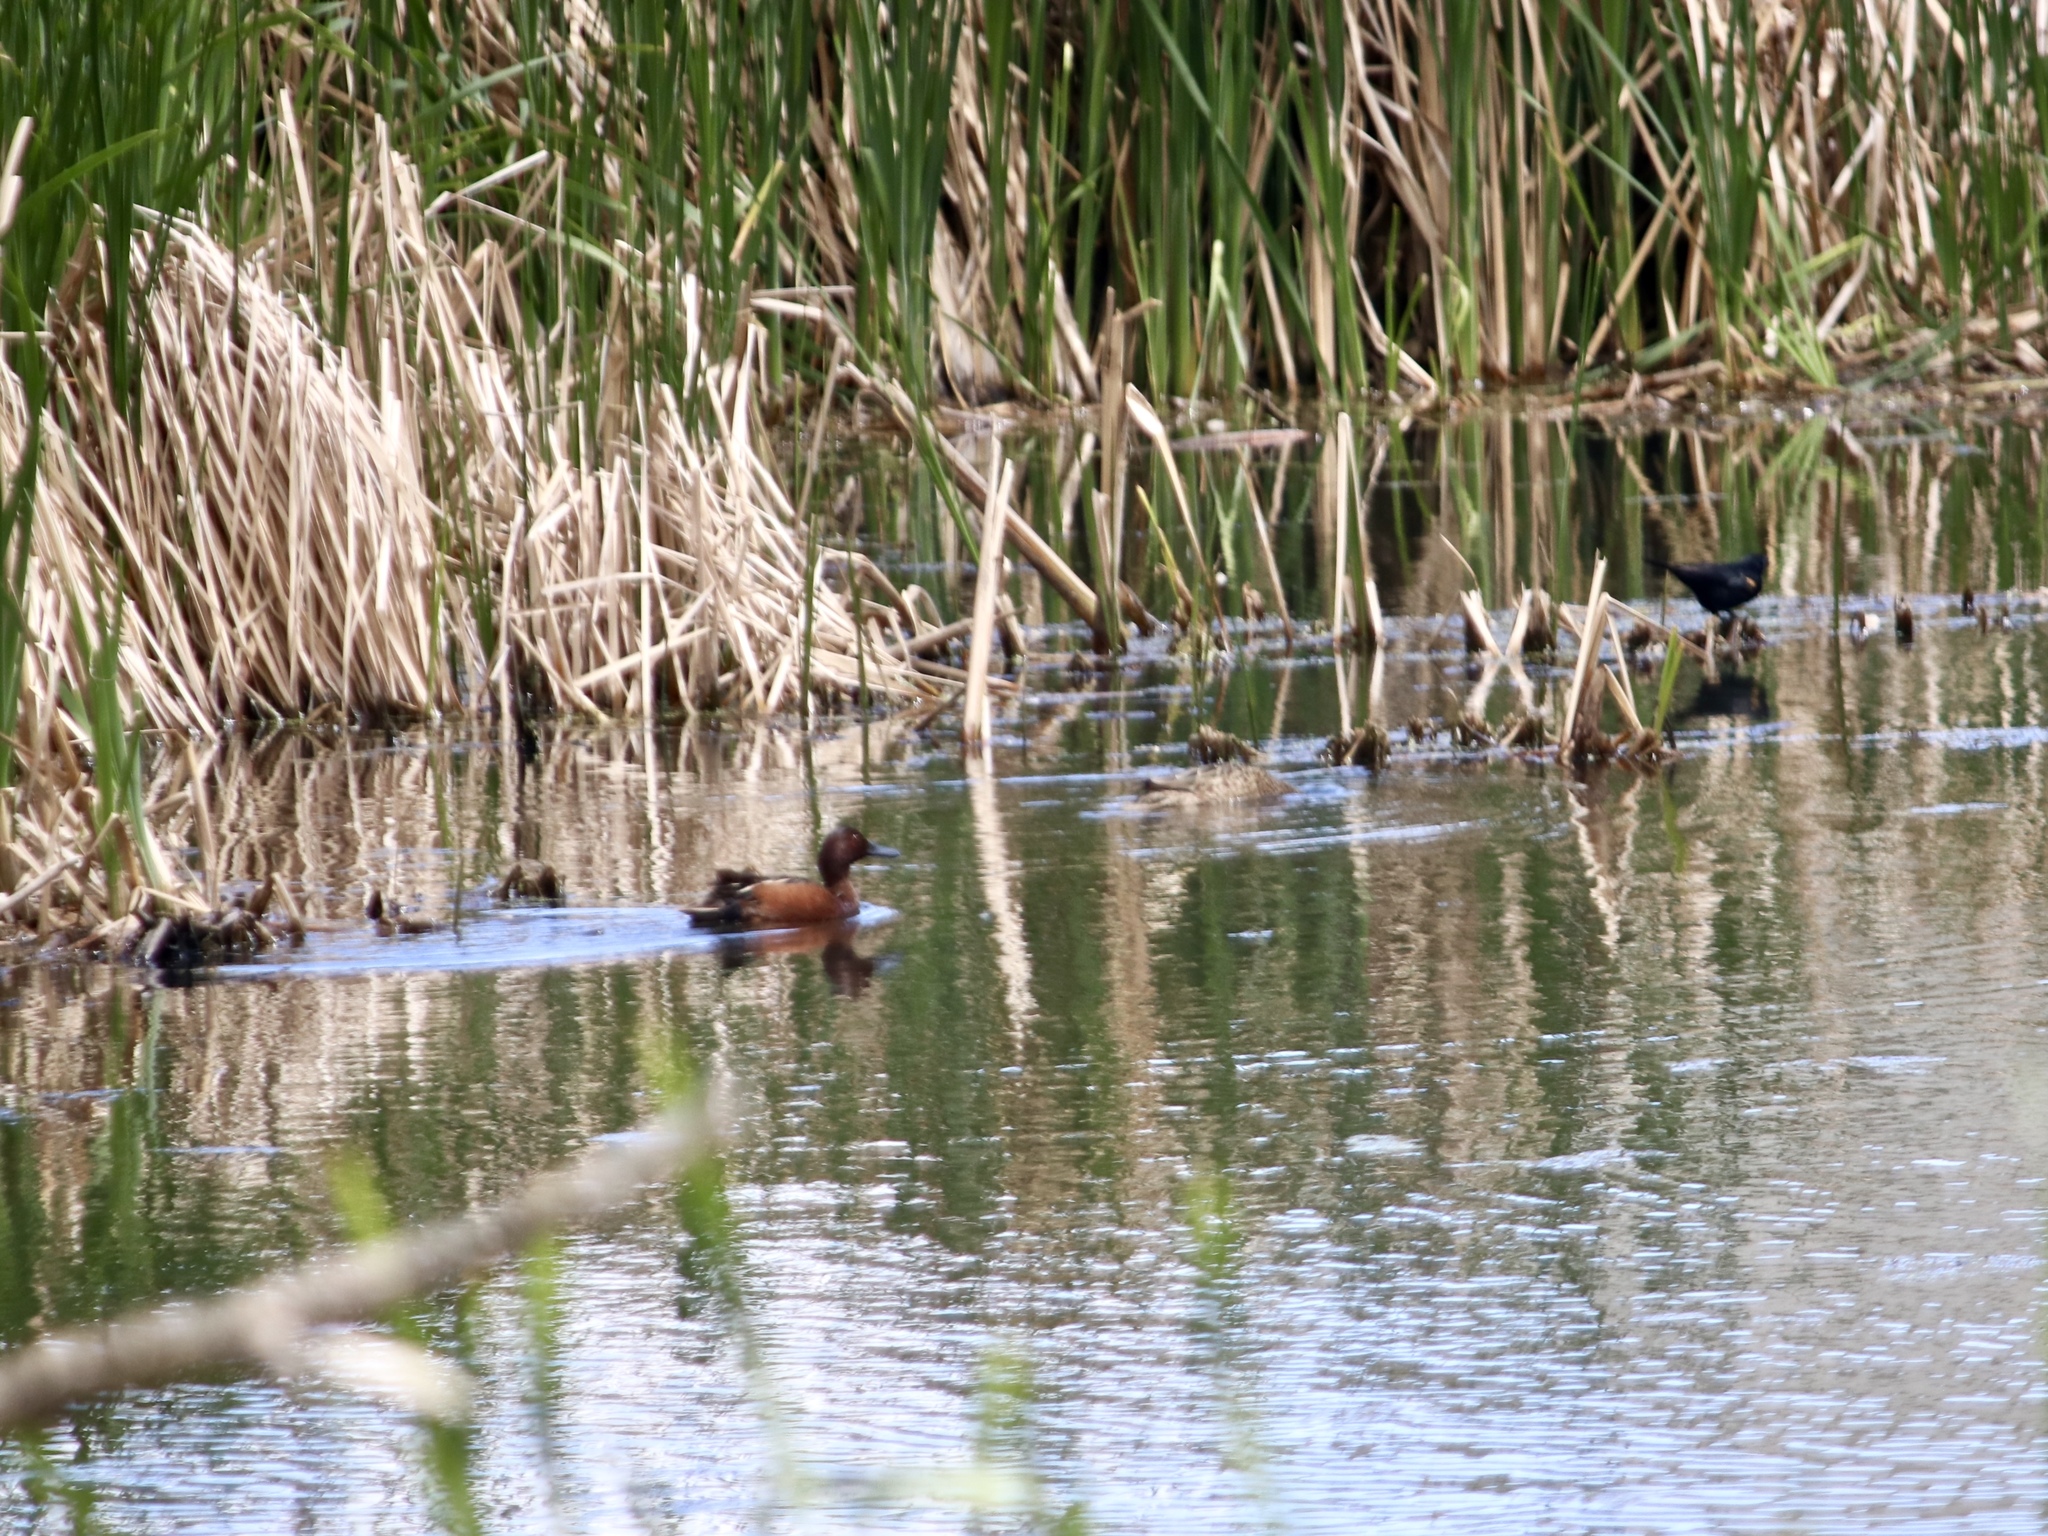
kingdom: Animalia
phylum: Chordata
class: Aves
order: Anseriformes
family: Anatidae
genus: Spatula
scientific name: Spatula cyanoptera
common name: Cinnamon teal
